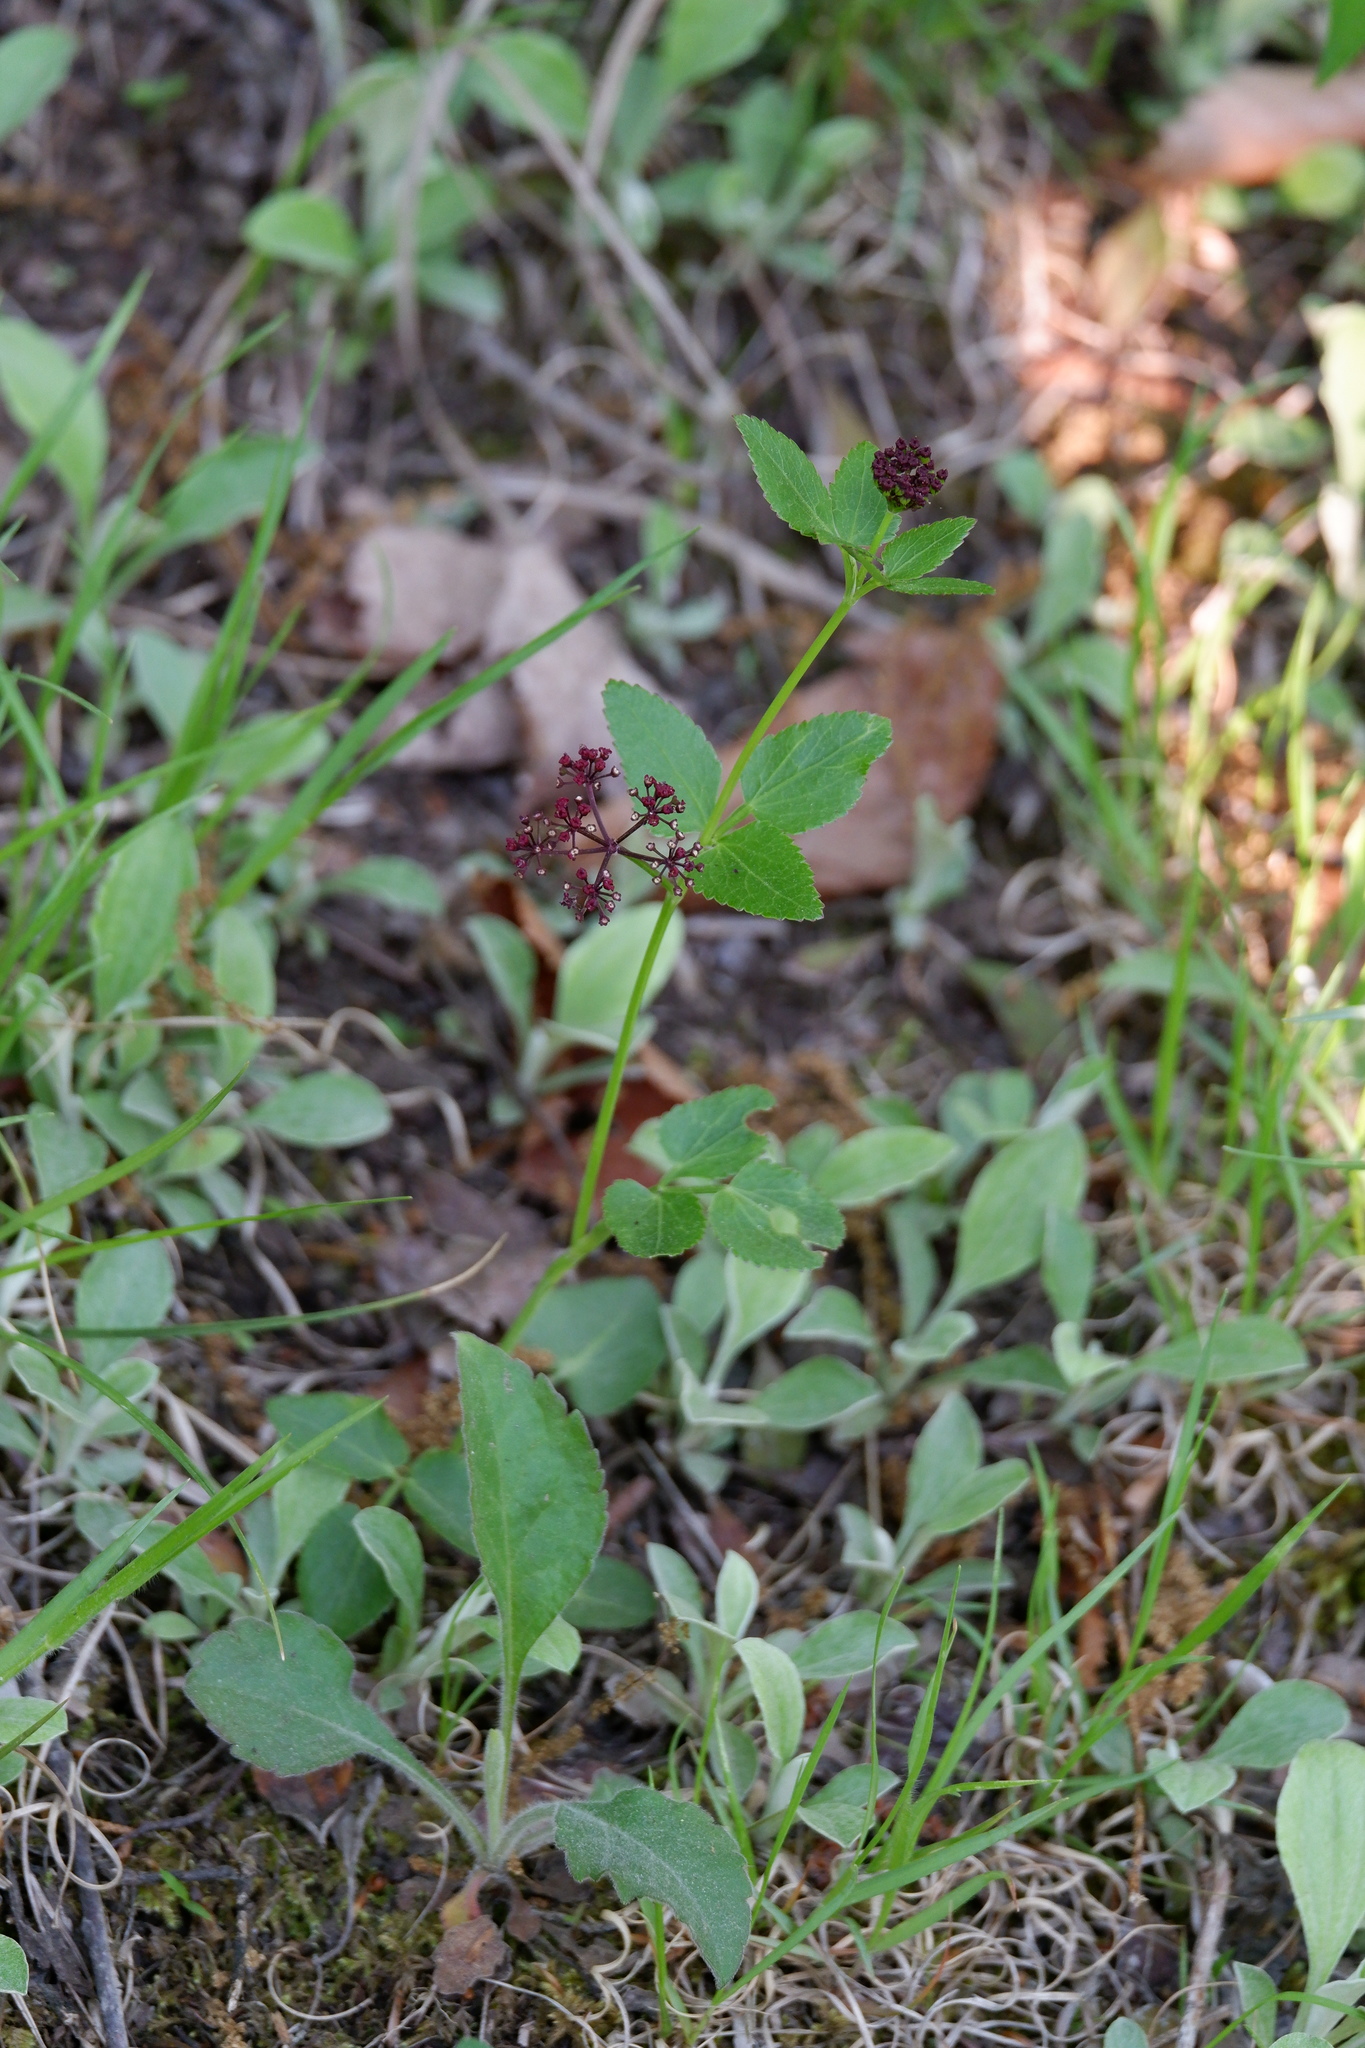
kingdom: Plantae
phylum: Tracheophyta
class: Magnoliopsida
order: Apiales
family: Apiaceae
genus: Thaspium
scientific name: Thaspium trifoliatum
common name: Purple meadow-parsnip
